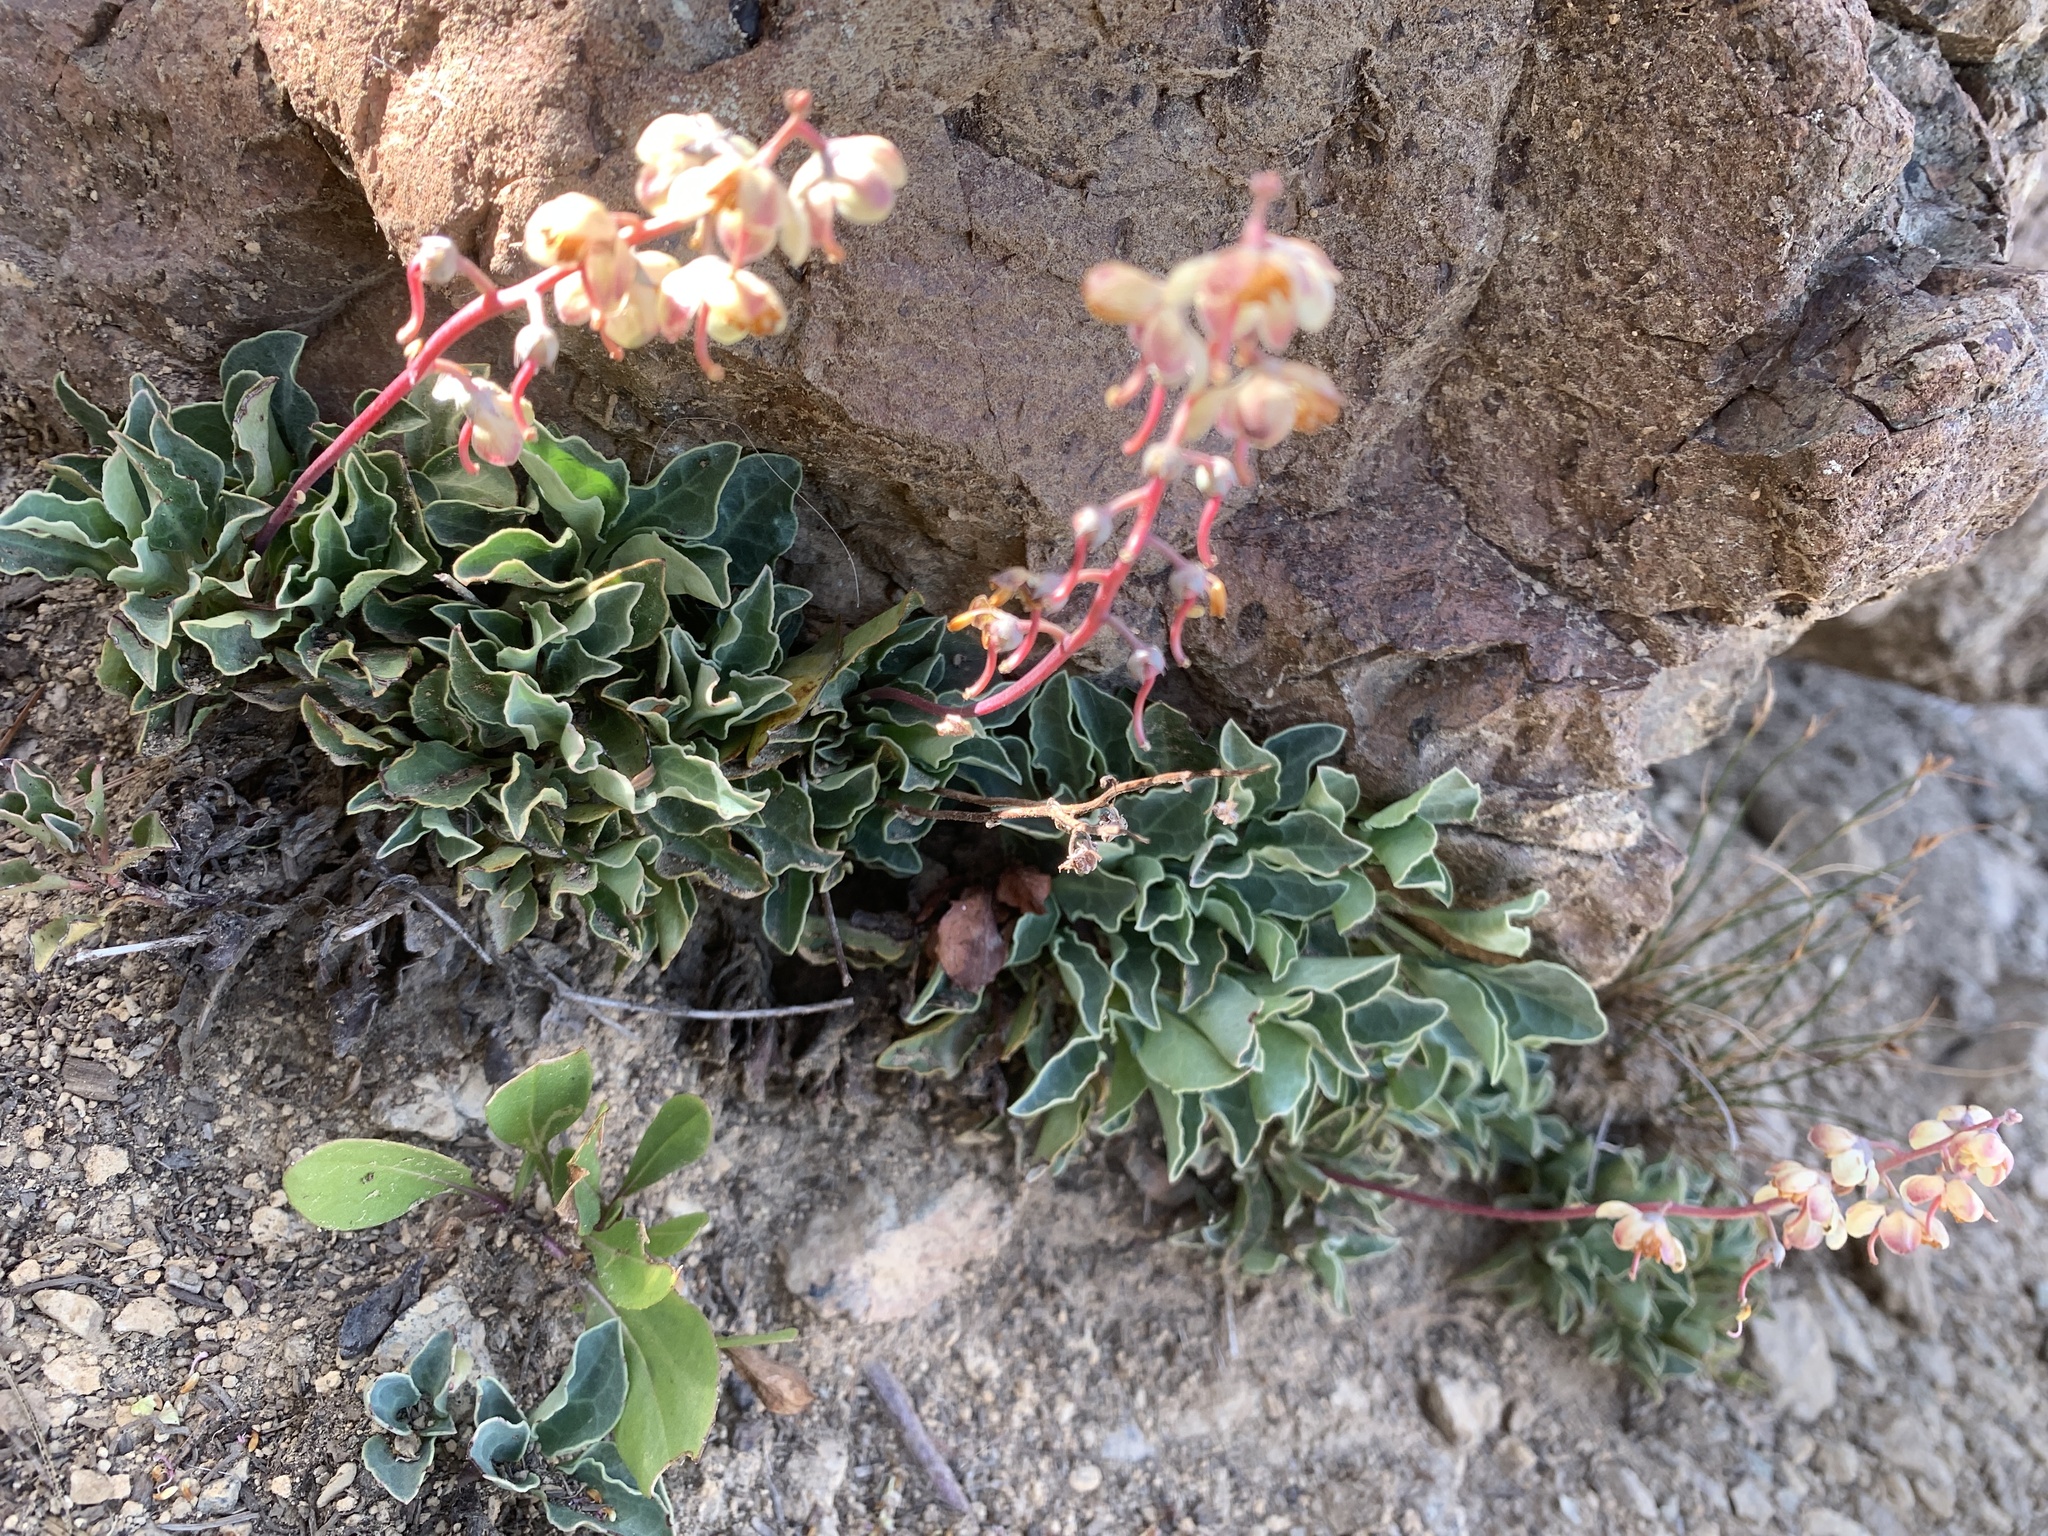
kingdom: Plantae
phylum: Tracheophyta
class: Magnoliopsida
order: Ericales
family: Ericaceae
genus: Pyrola
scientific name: Pyrola dentata
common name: Tooth-leaved wintergreen
